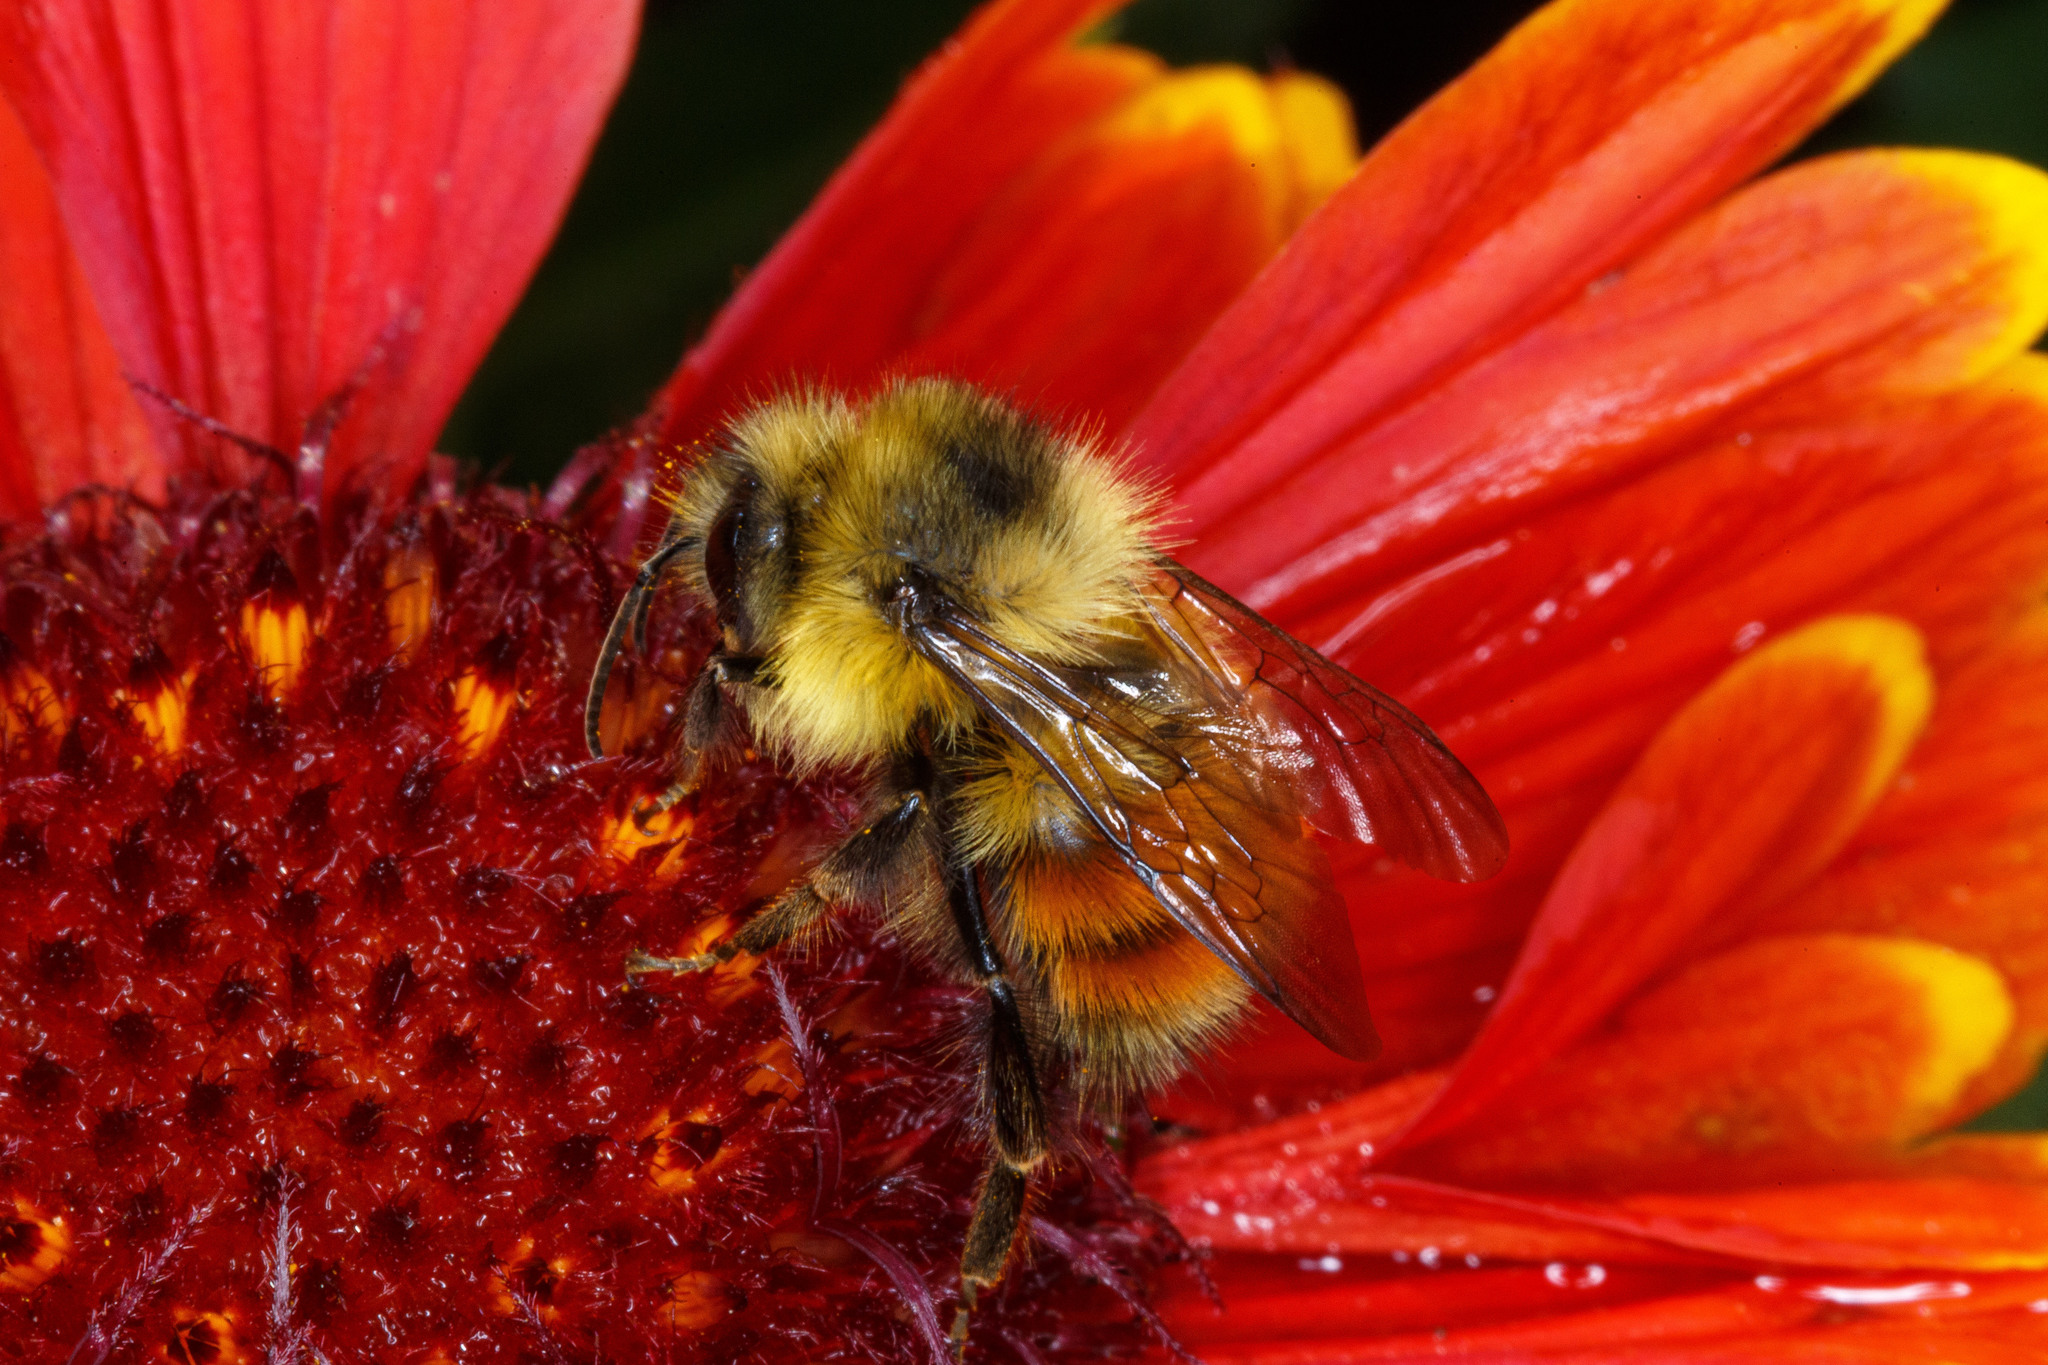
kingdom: Animalia
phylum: Arthropoda
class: Insecta
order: Hymenoptera
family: Apidae
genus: Bombus
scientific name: Bombus melanopygus
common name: Black tail bumble bee
